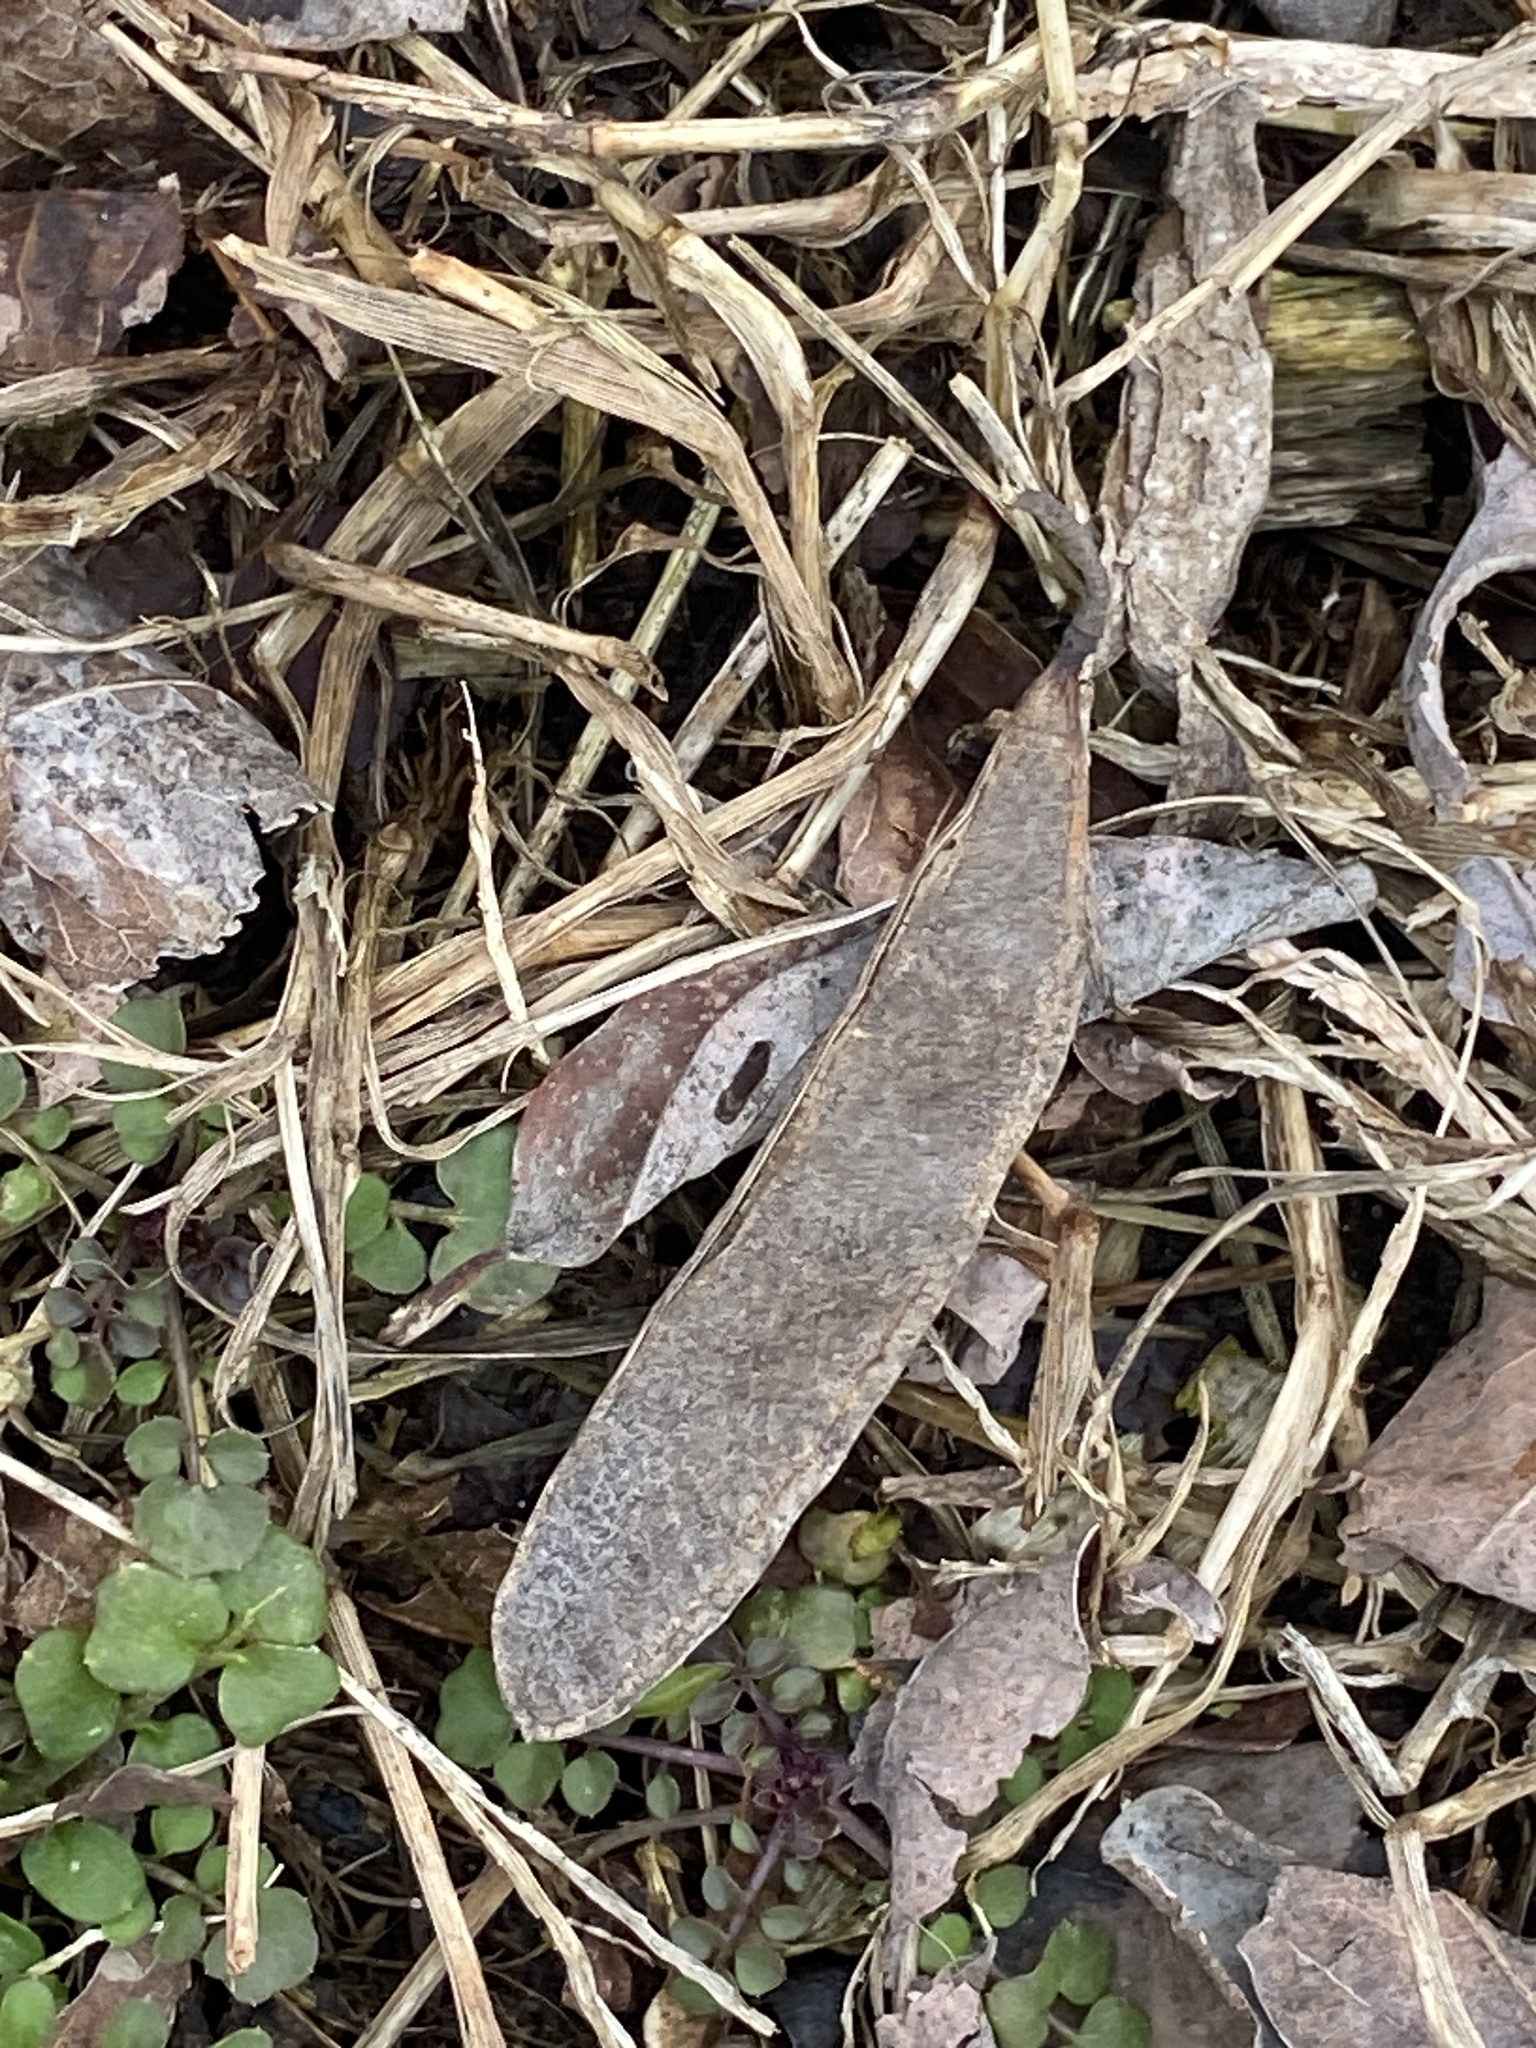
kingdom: Plantae
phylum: Tracheophyta
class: Magnoliopsida
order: Fabales
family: Fabaceae
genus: Robinia
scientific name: Robinia pseudoacacia
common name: Black locust
